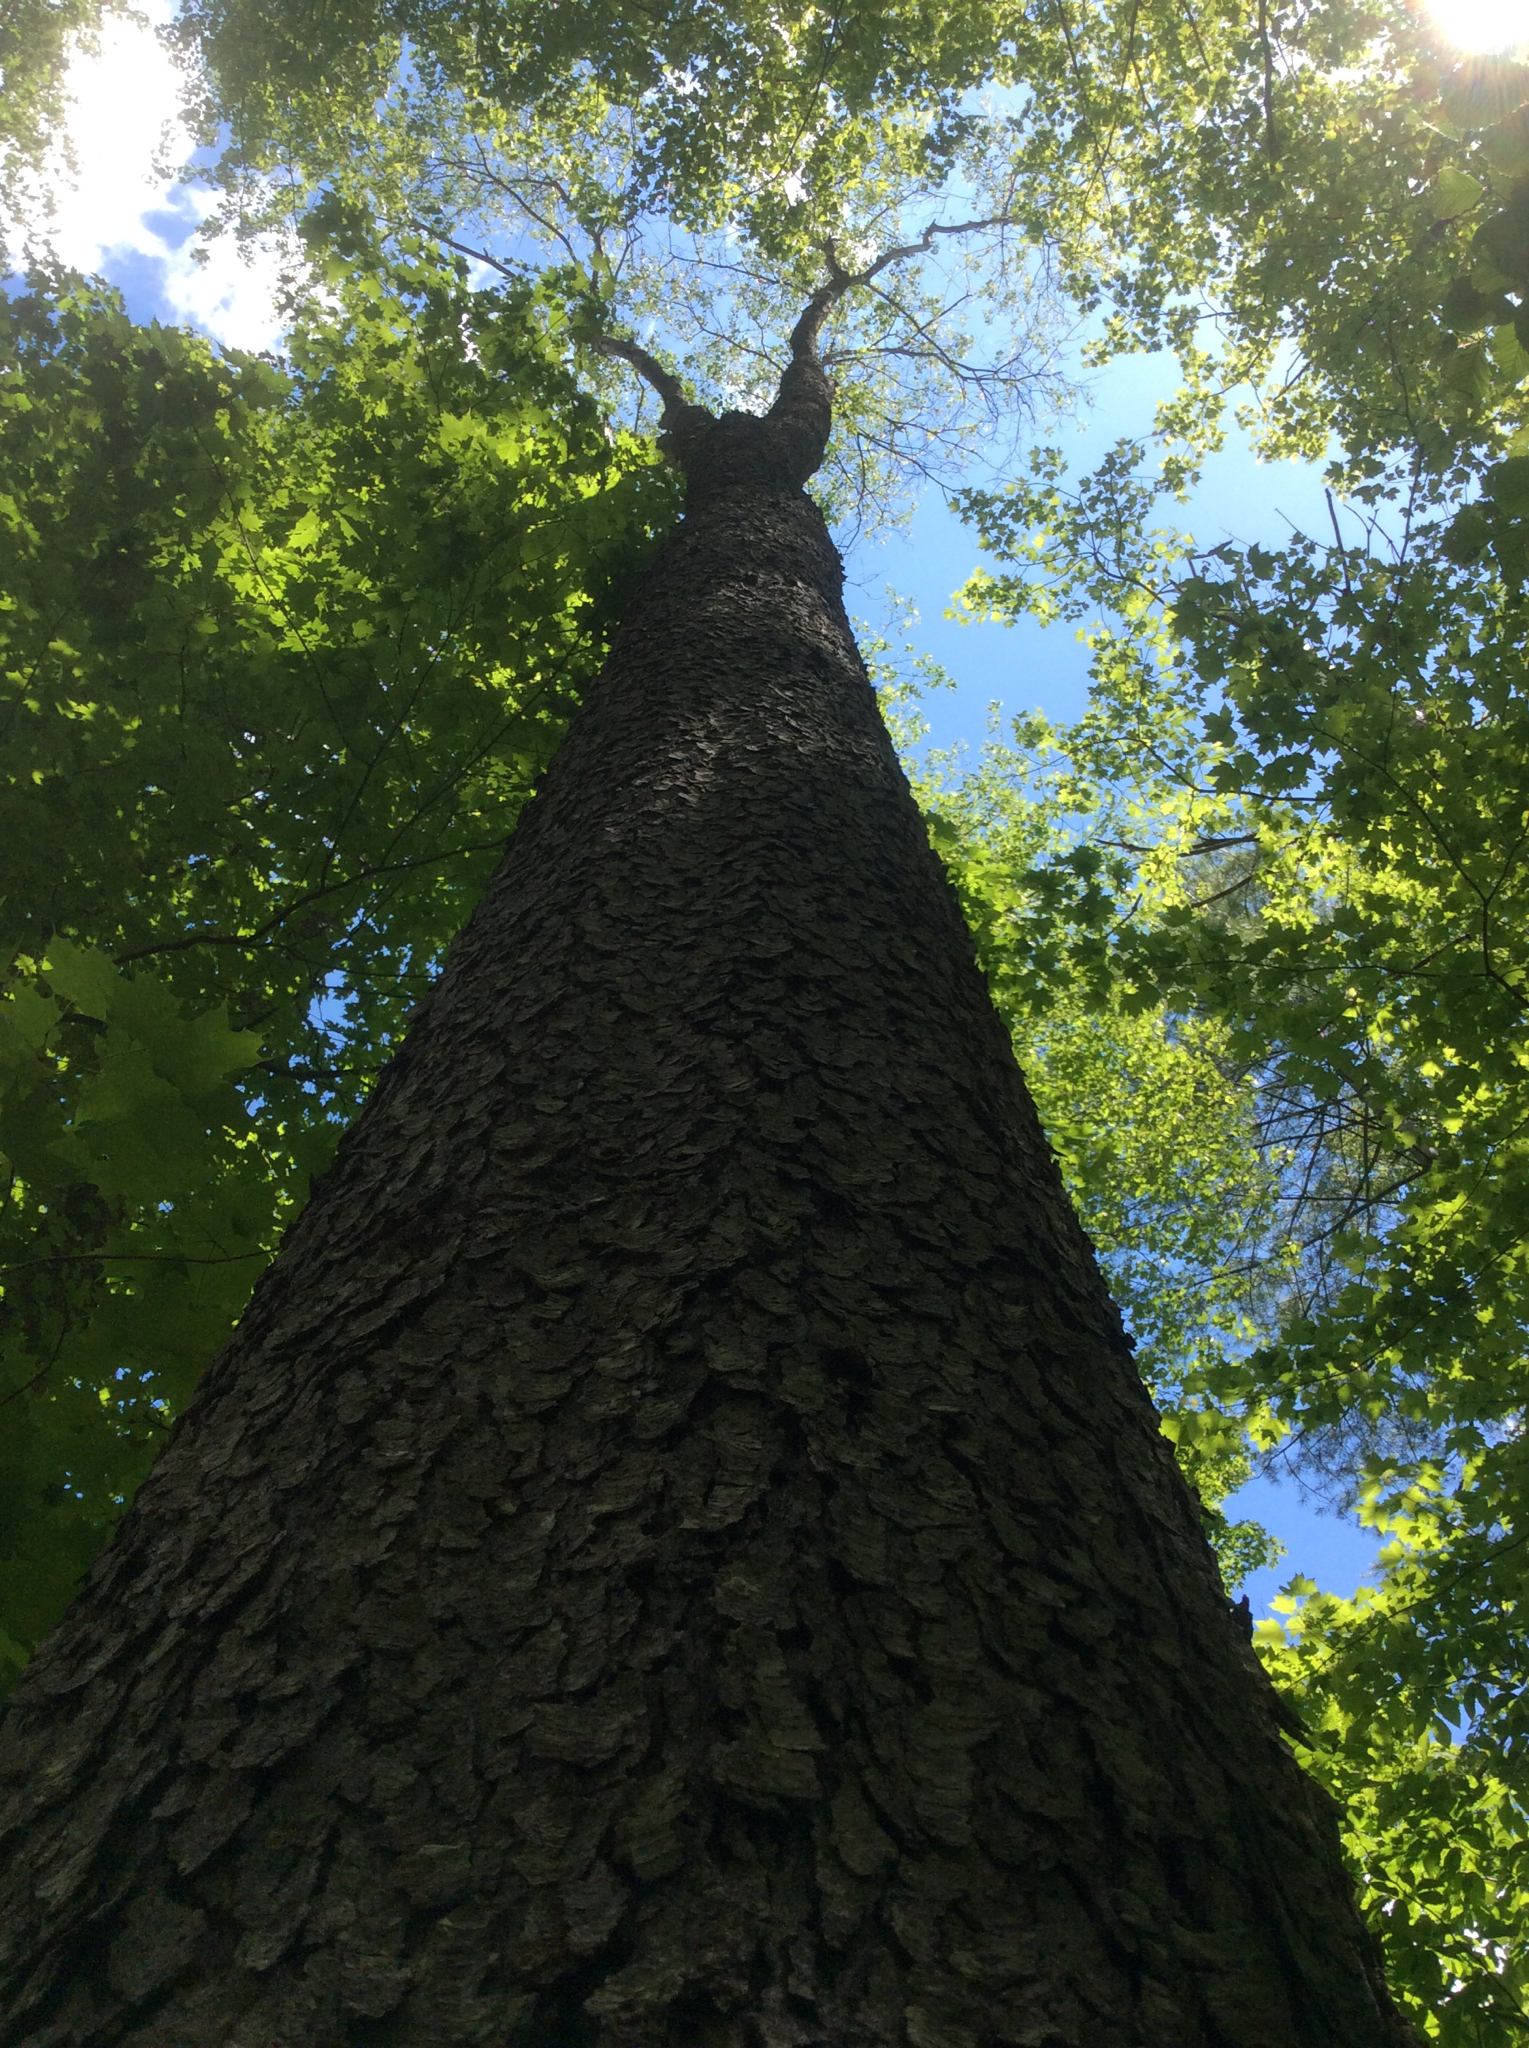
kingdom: Plantae
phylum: Tracheophyta
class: Magnoliopsida
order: Rosales
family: Rosaceae
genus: Prunus
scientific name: Prunus serotina
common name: Black cherry
